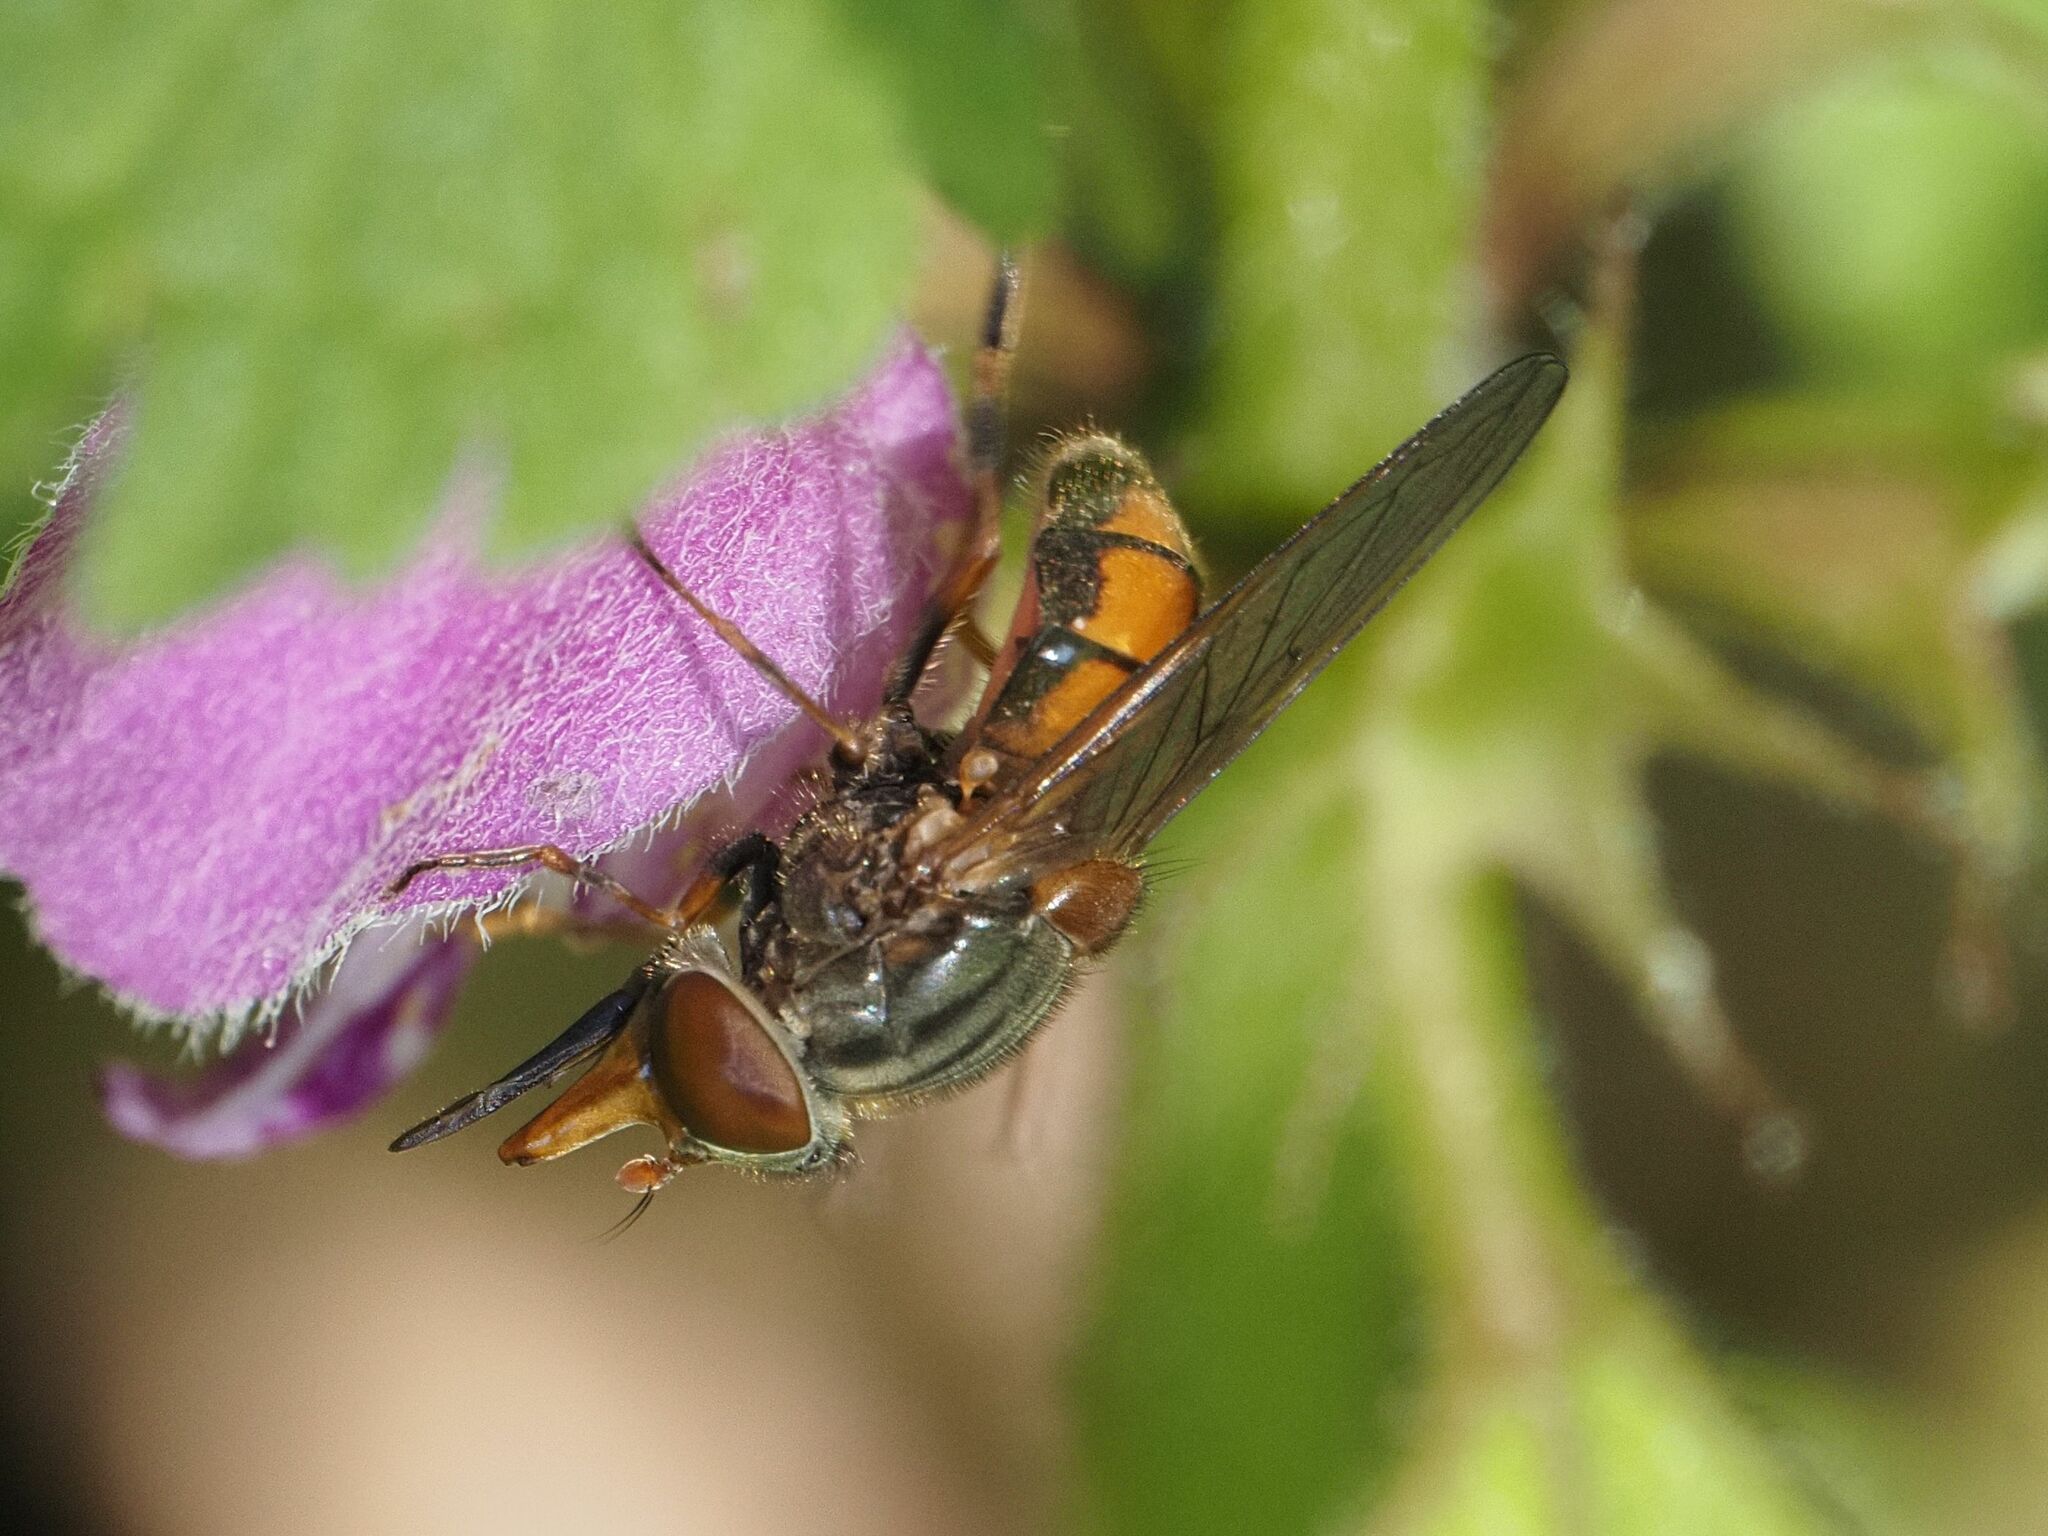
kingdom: Animalia
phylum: Arthropoda
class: Insecta
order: Diptera
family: Syrphidae
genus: Rhingia
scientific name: Rhingia campestris
